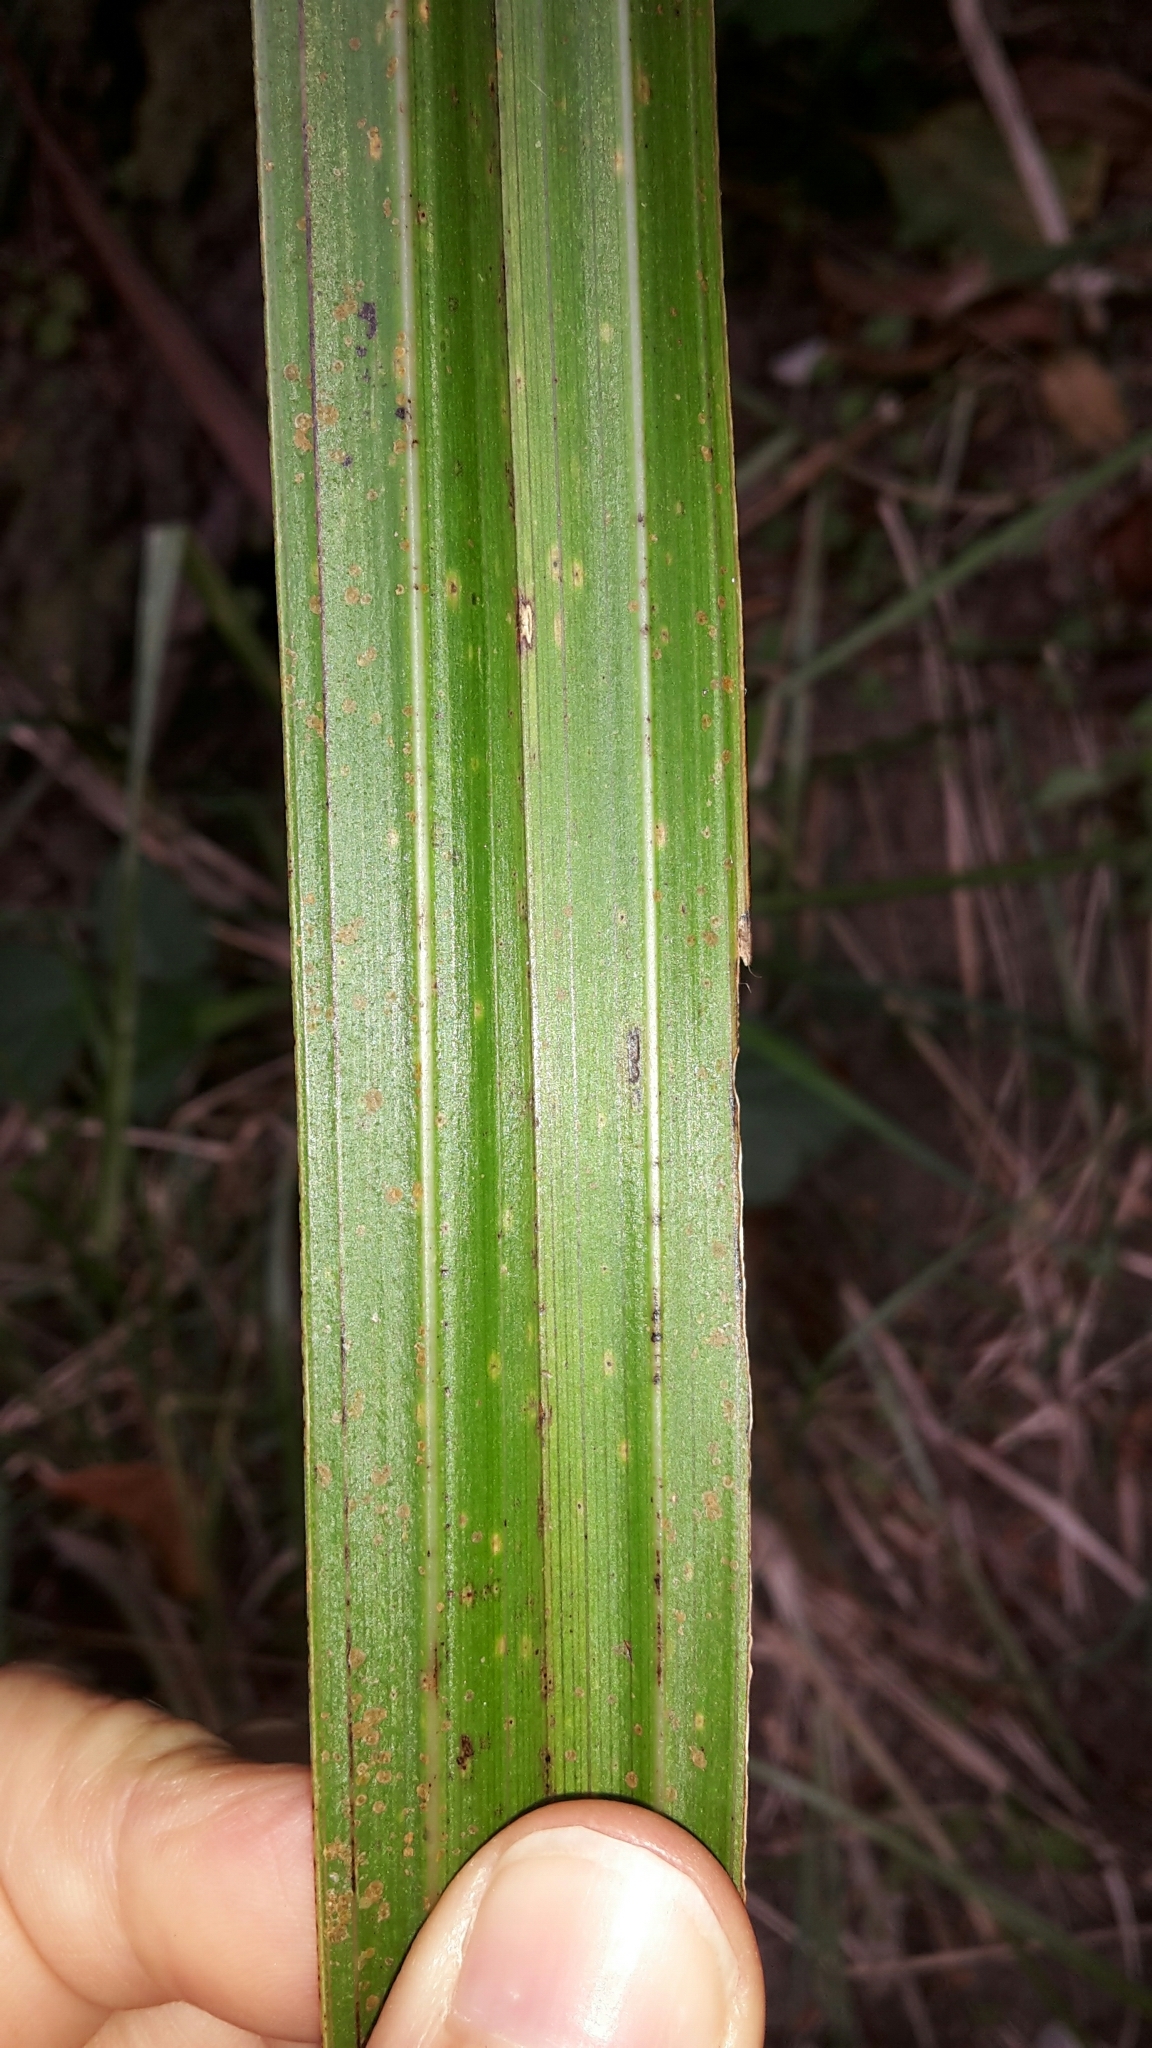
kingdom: Plantae
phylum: Tracheophyta
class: Liliopsida
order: Asparagales
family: Asteliaceae
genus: Astelia
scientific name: Astelia fragrans
